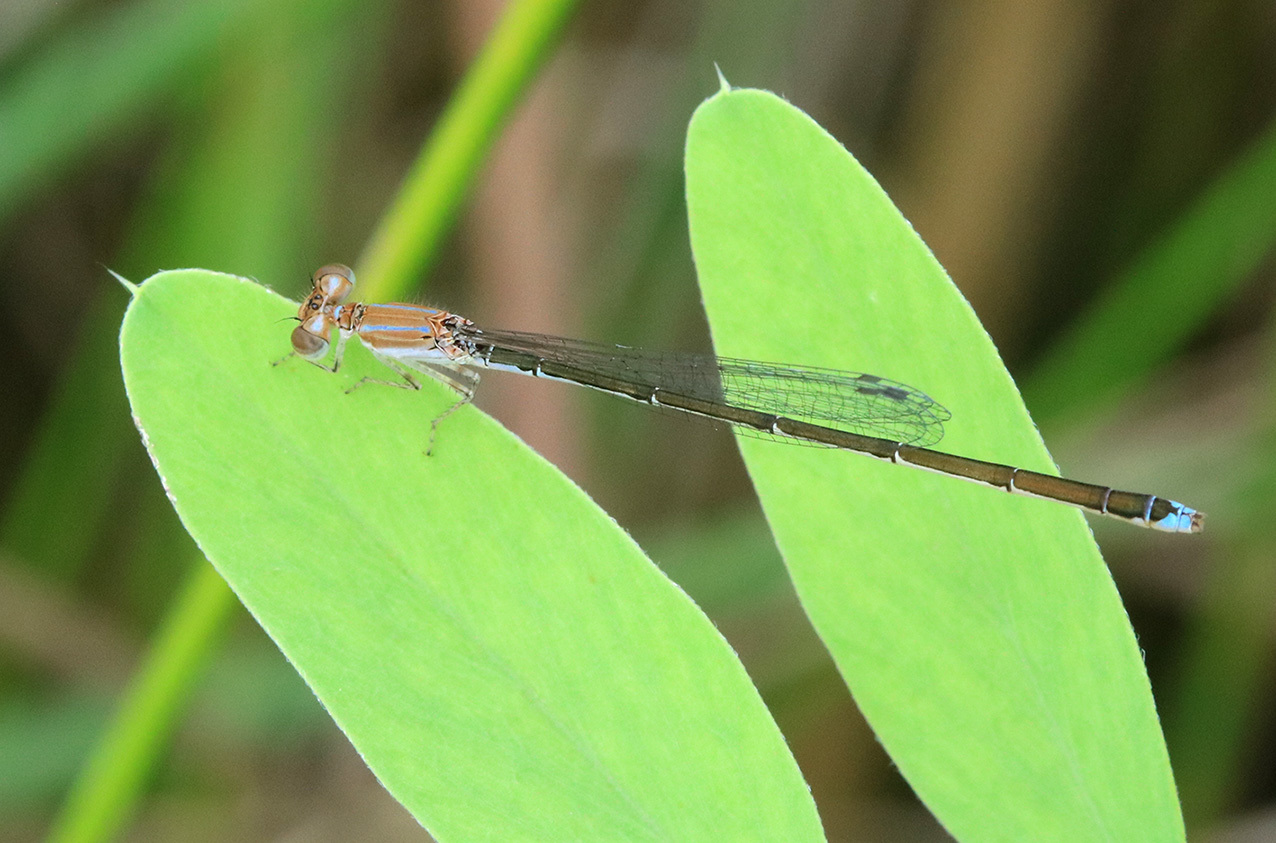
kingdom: Animalia
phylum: Arthropoda
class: Insecta
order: Odonata
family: Coenagrionidae
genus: Argentagrion
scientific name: Argentagrion ambiguum
